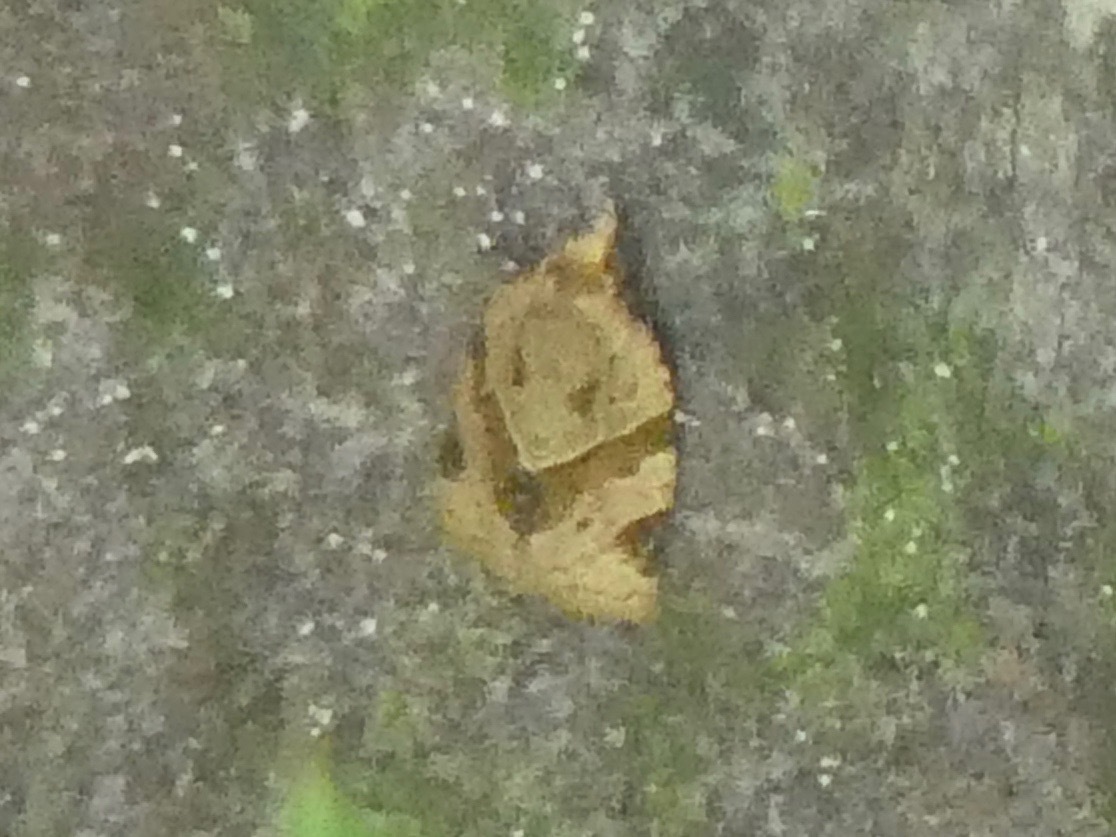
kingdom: Animalia
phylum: Arthropoda
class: Insecta
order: Lepidoptera
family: Tortricidae
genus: Clepsis
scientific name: Clepsis peritana
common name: Garden tortrix
